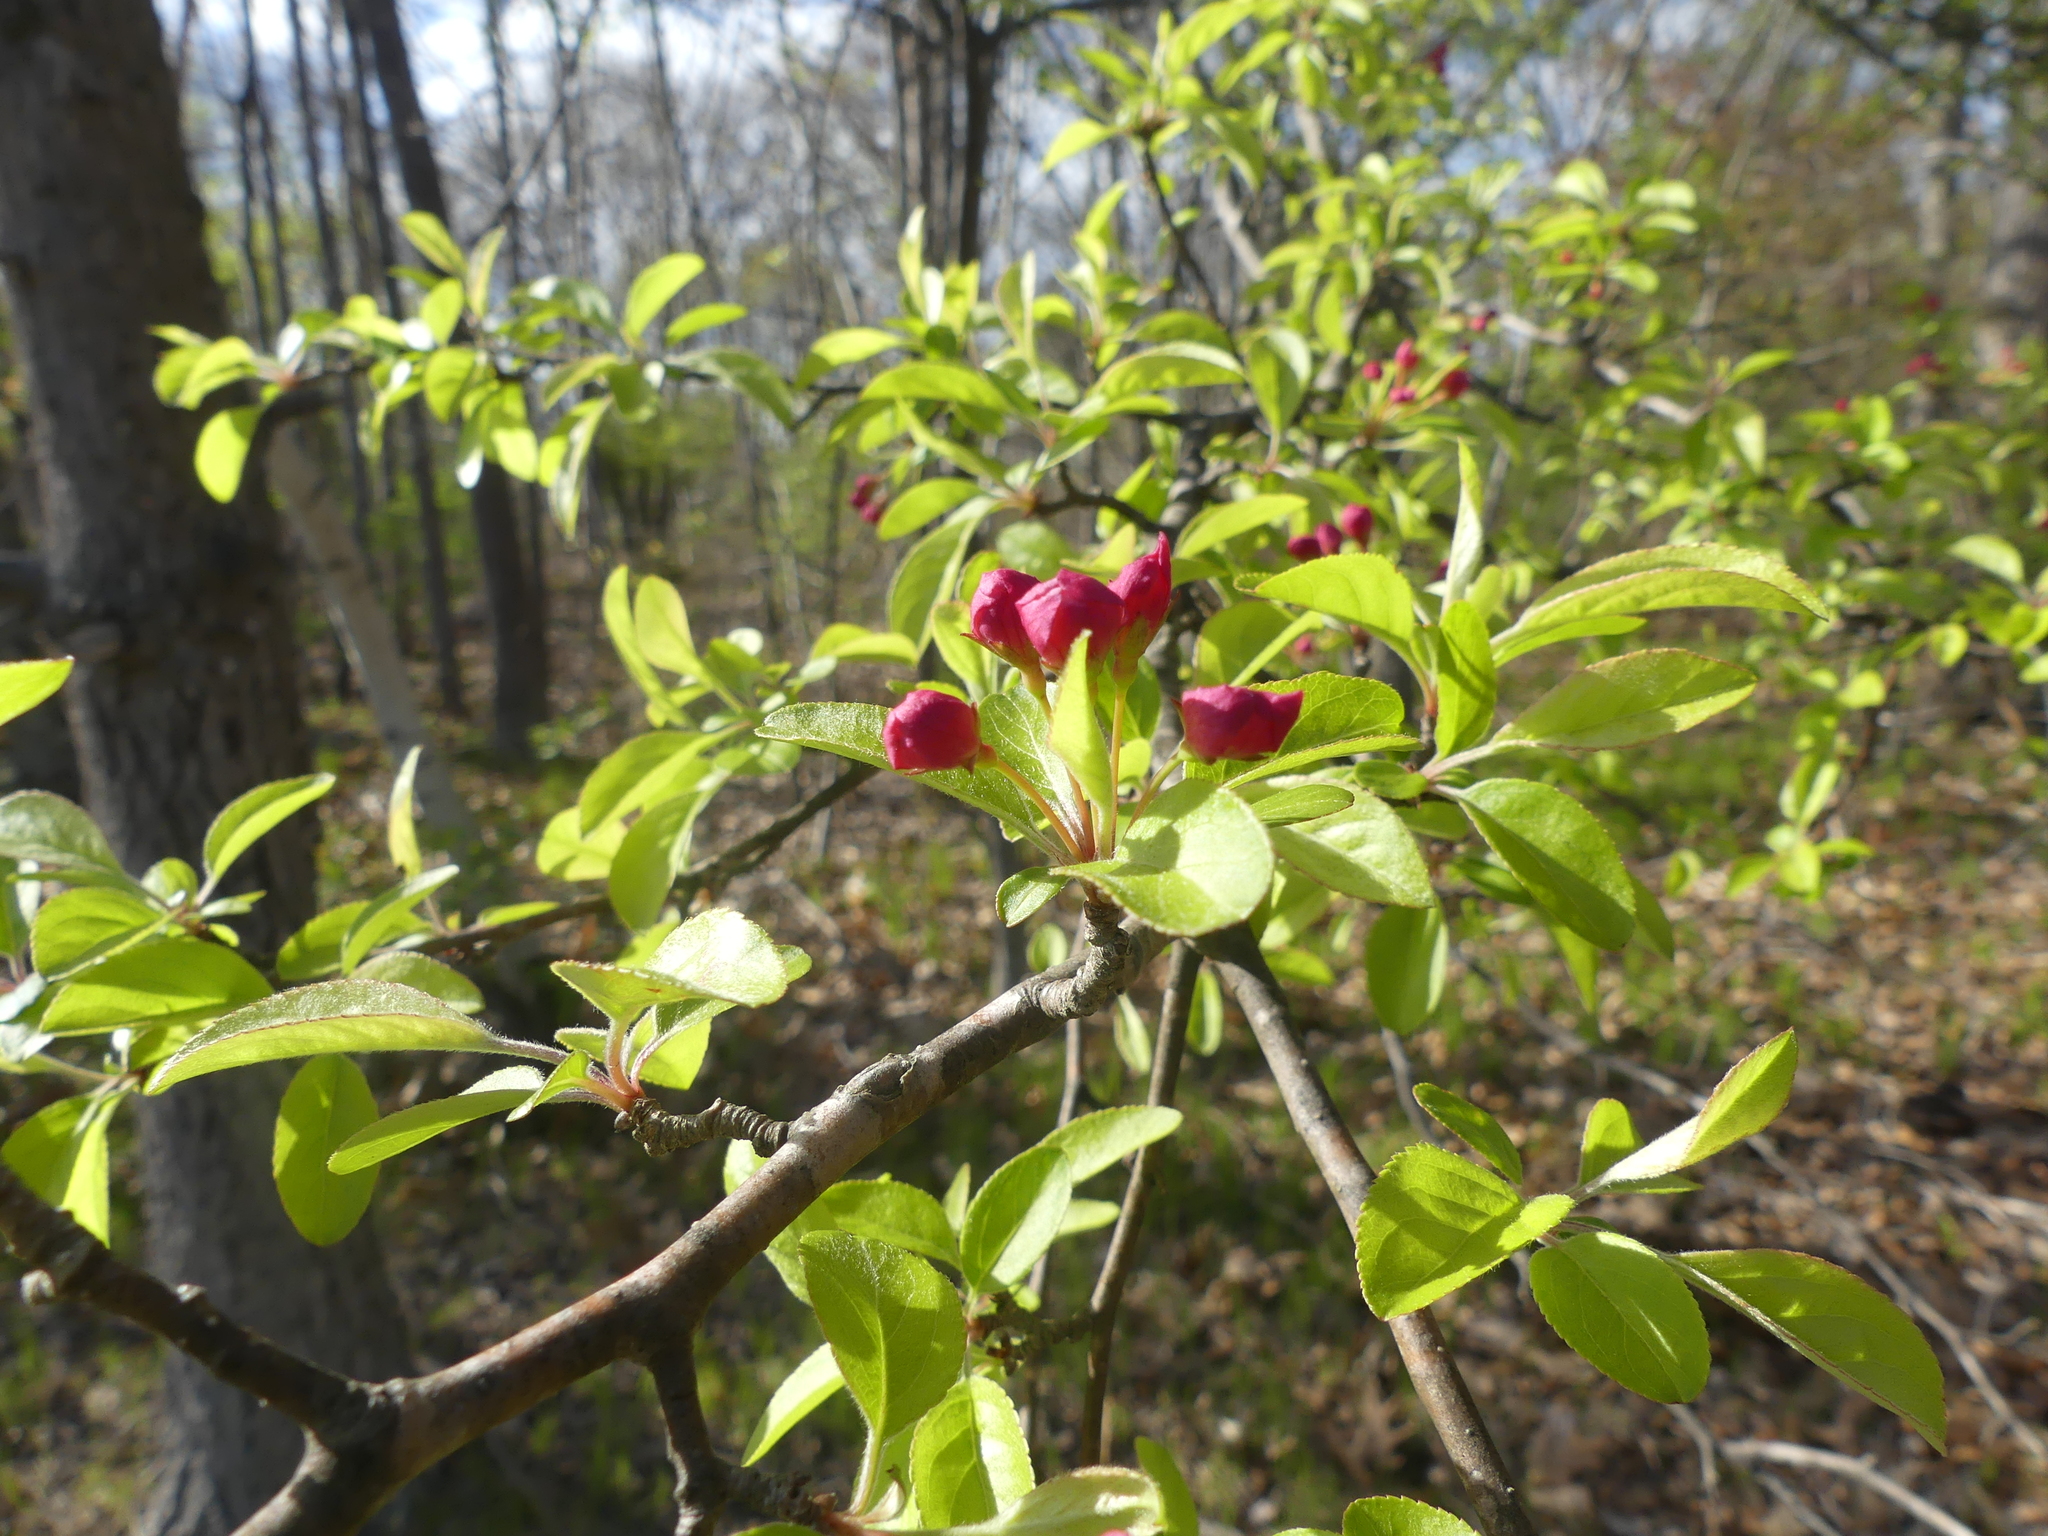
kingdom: Plantae
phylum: Tracheophyta
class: Magnoliopsida
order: Rosales
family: Rosaceae
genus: Malus
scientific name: Malus coronaria
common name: Sweet crab apple
